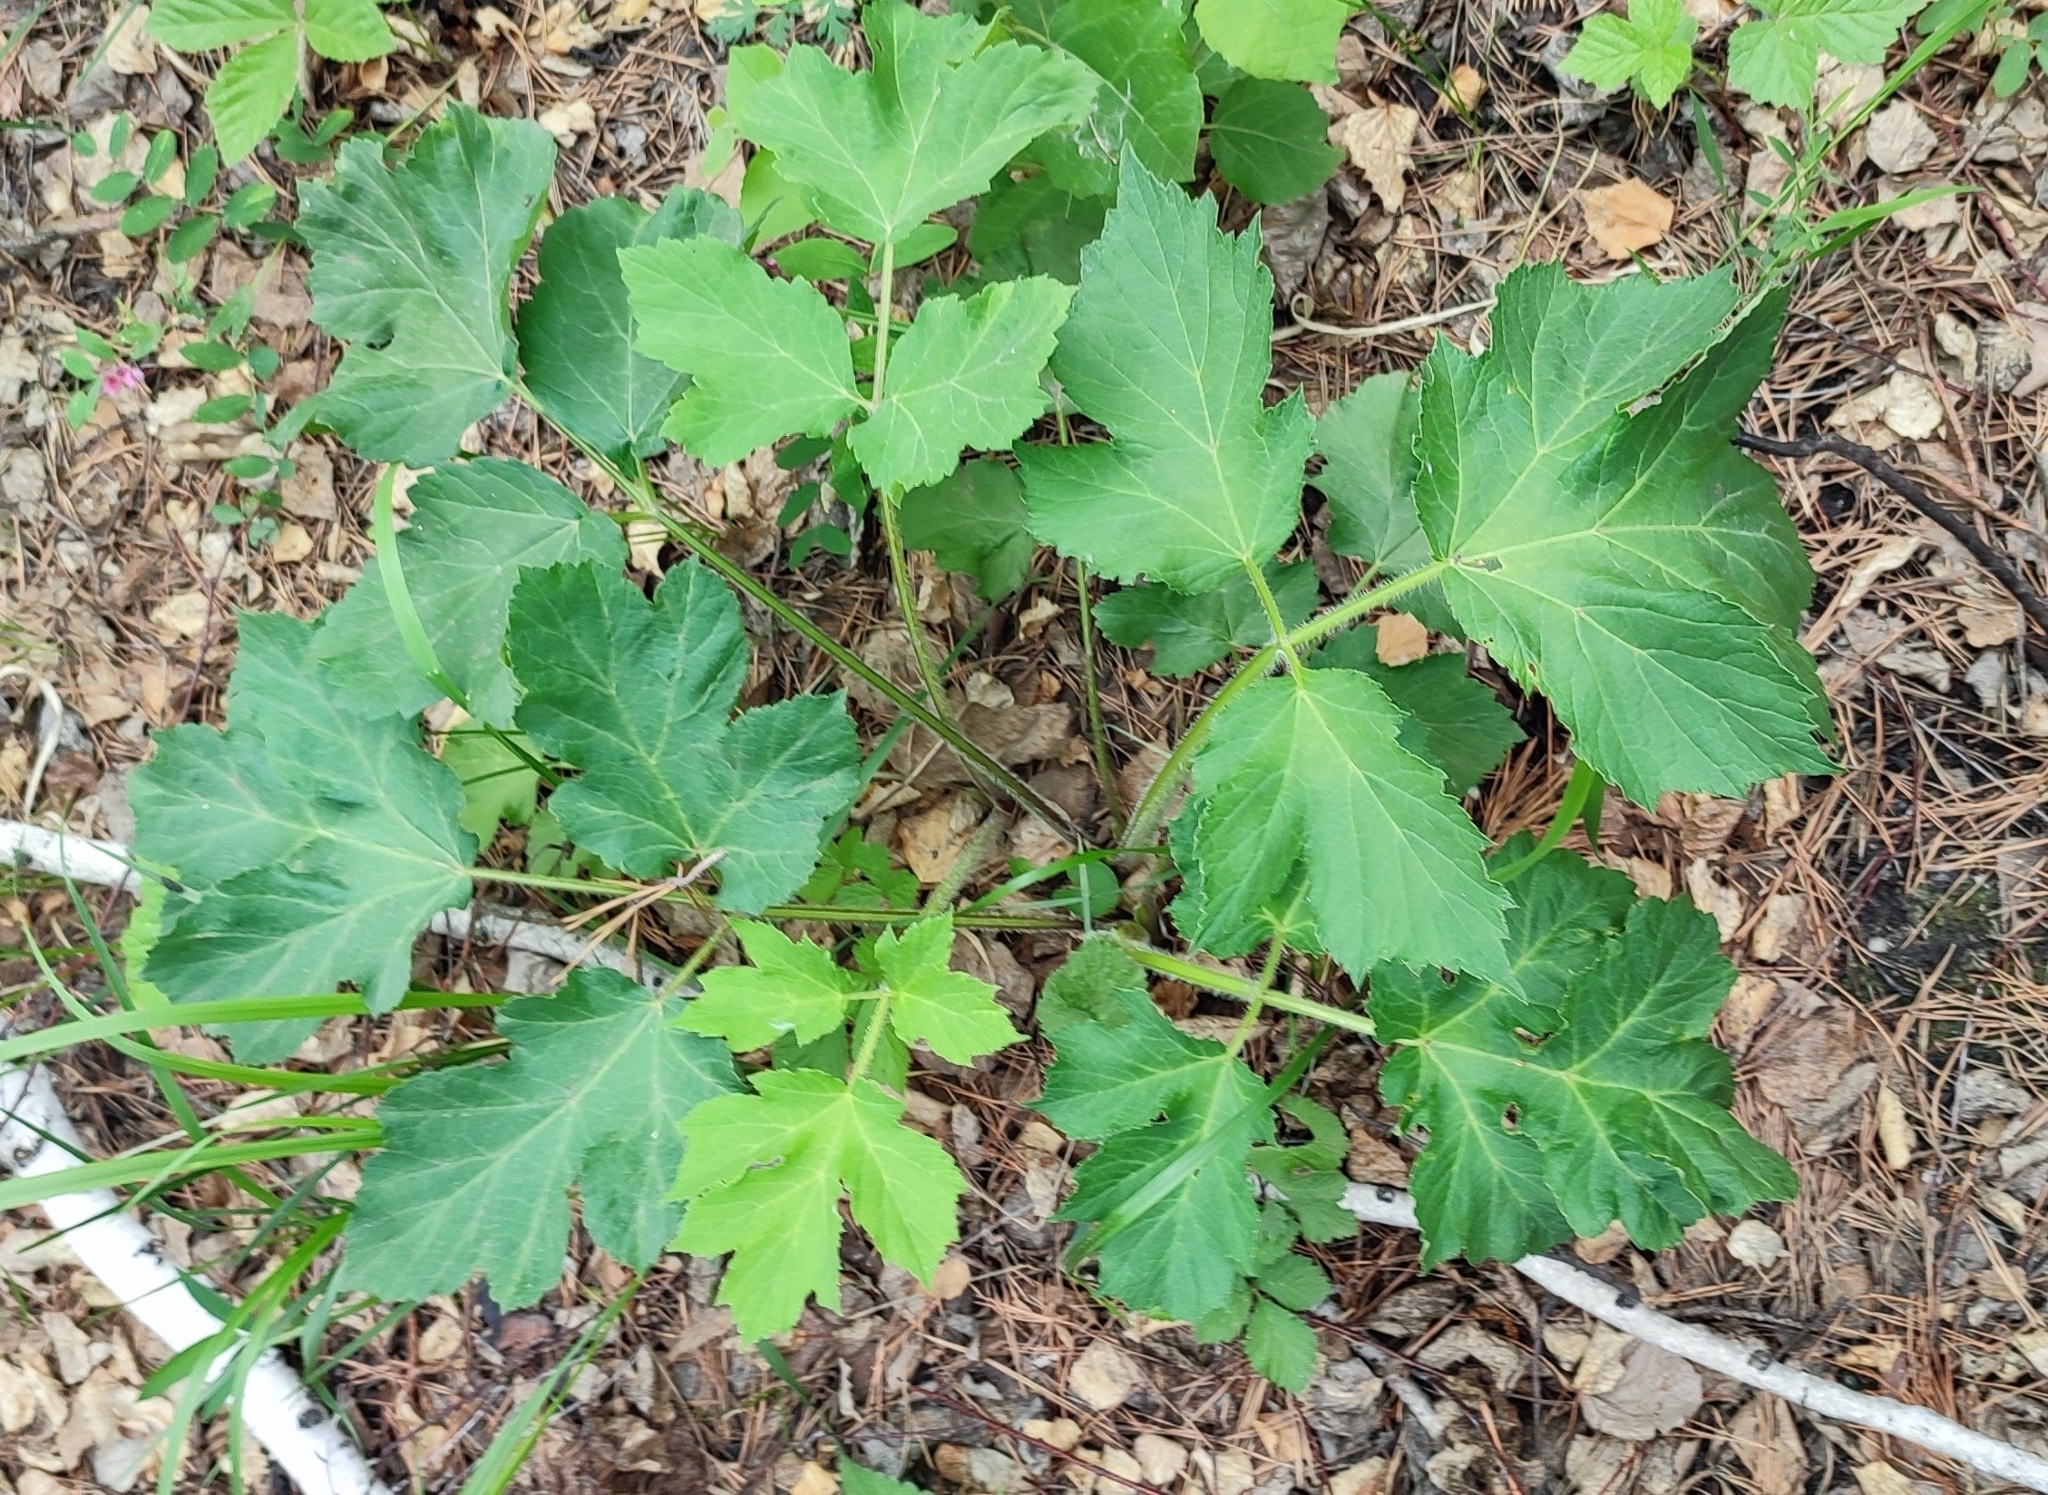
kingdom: Plantae
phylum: Tracheophyta
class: Magnoliopsida
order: Apiales
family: Apiaceae
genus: Heracleum
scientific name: Heracleum sphondylium
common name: Hogweed
